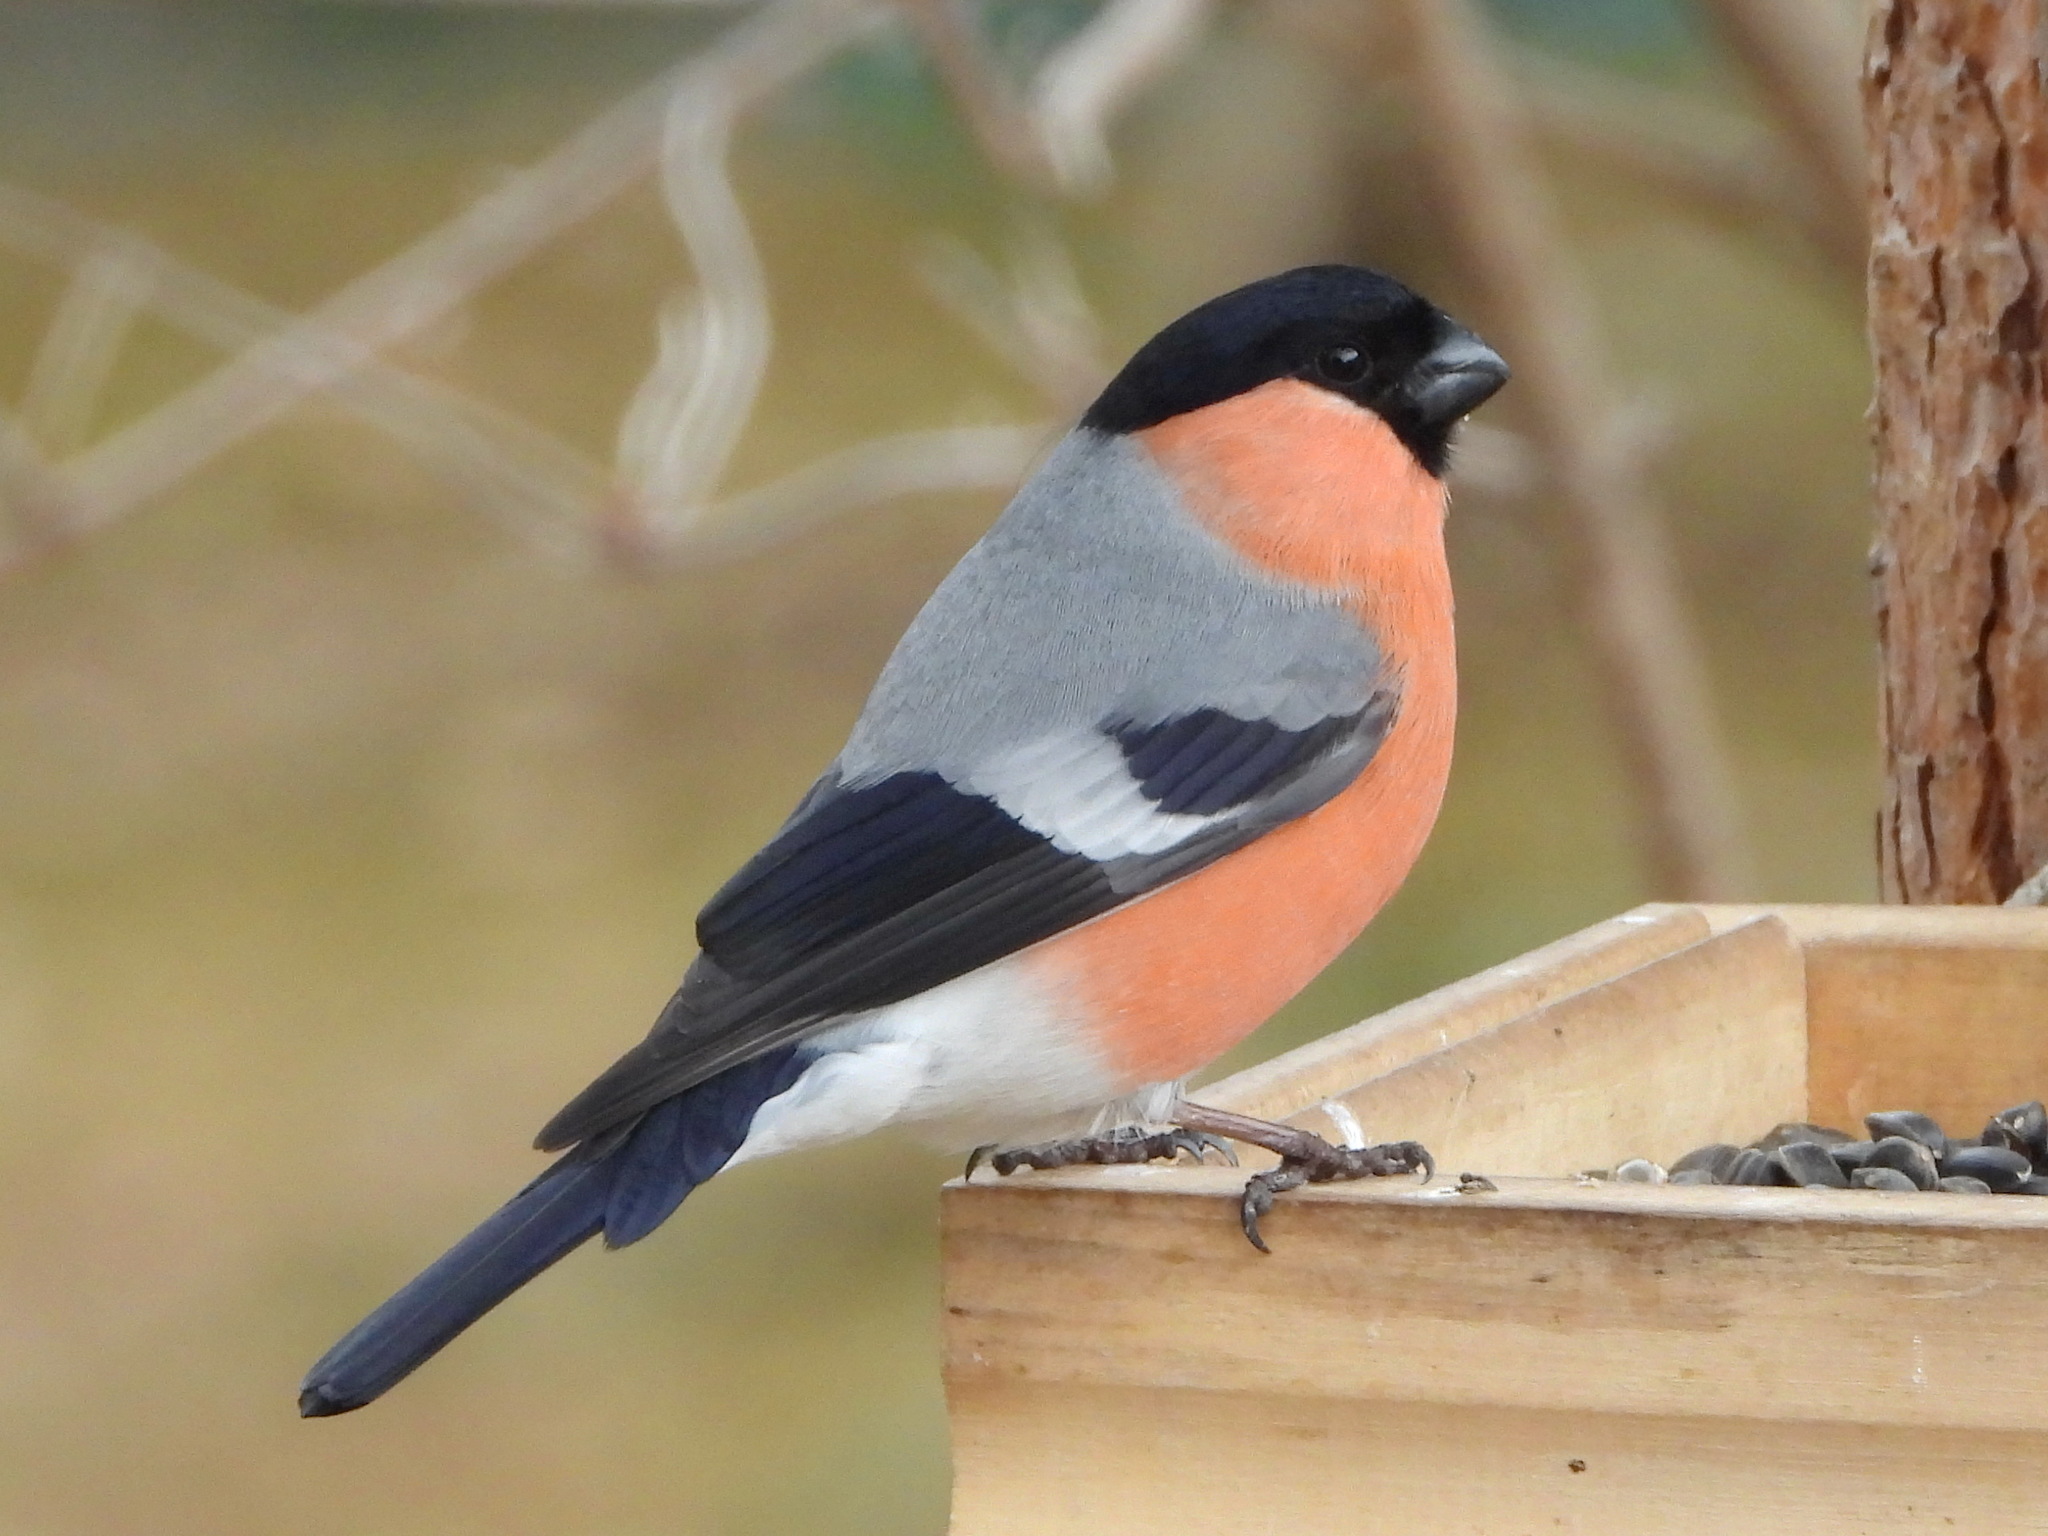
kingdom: Animalia
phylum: Chordata
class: Aves
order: Passeriformes
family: Fringillidae
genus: Pyrrhula
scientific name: Pyrrhula pyrrhula
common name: Eurasian bullfinch
